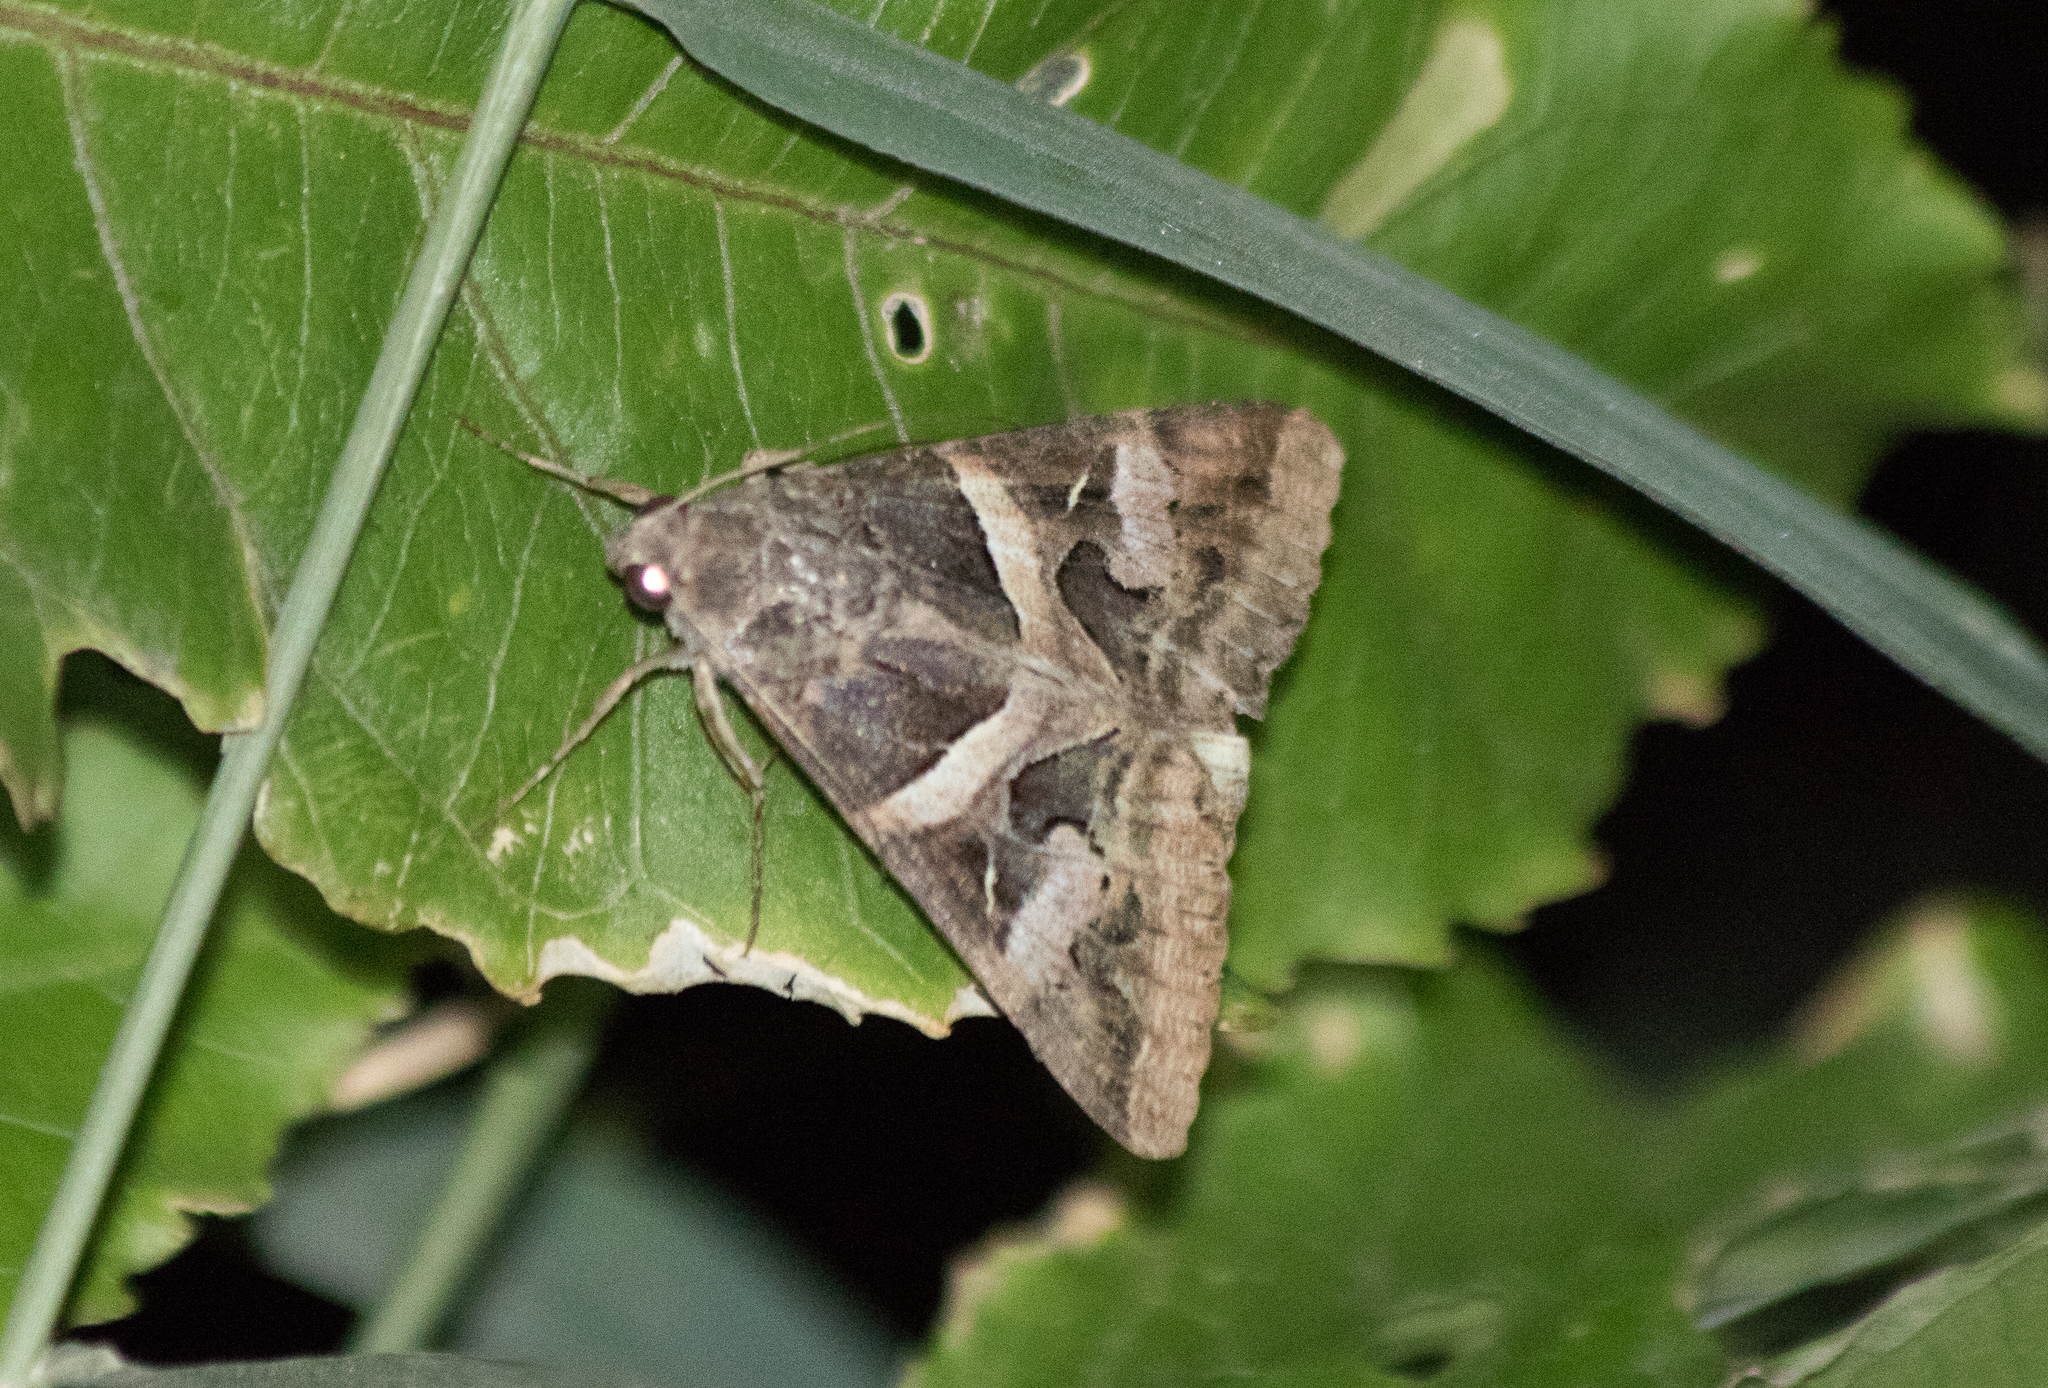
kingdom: Animalia
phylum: Arthropoda
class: Insecta
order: Lepidoptera
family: Erebidae
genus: Melipotis
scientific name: Melipotis indomita
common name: Moth
